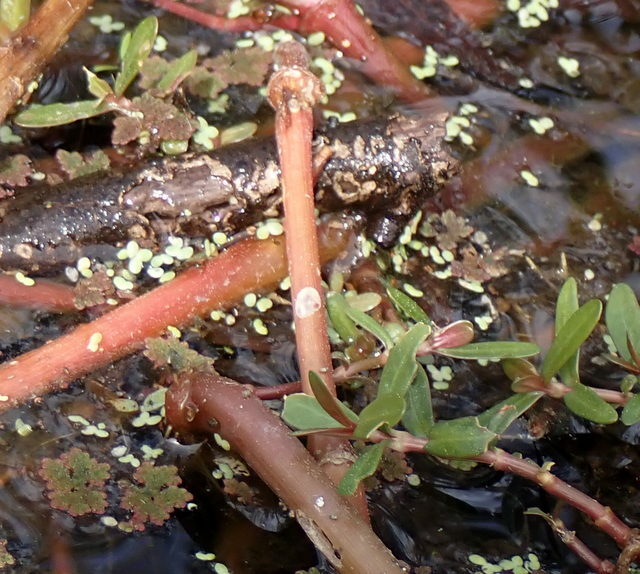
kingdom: Plantae
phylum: Tracheophyta
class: Magnoliopsida
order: Caryophyllales
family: Amaranthaceae
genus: Alternanthera
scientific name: Alternanthera philoxeroides
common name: Alligatorweed
